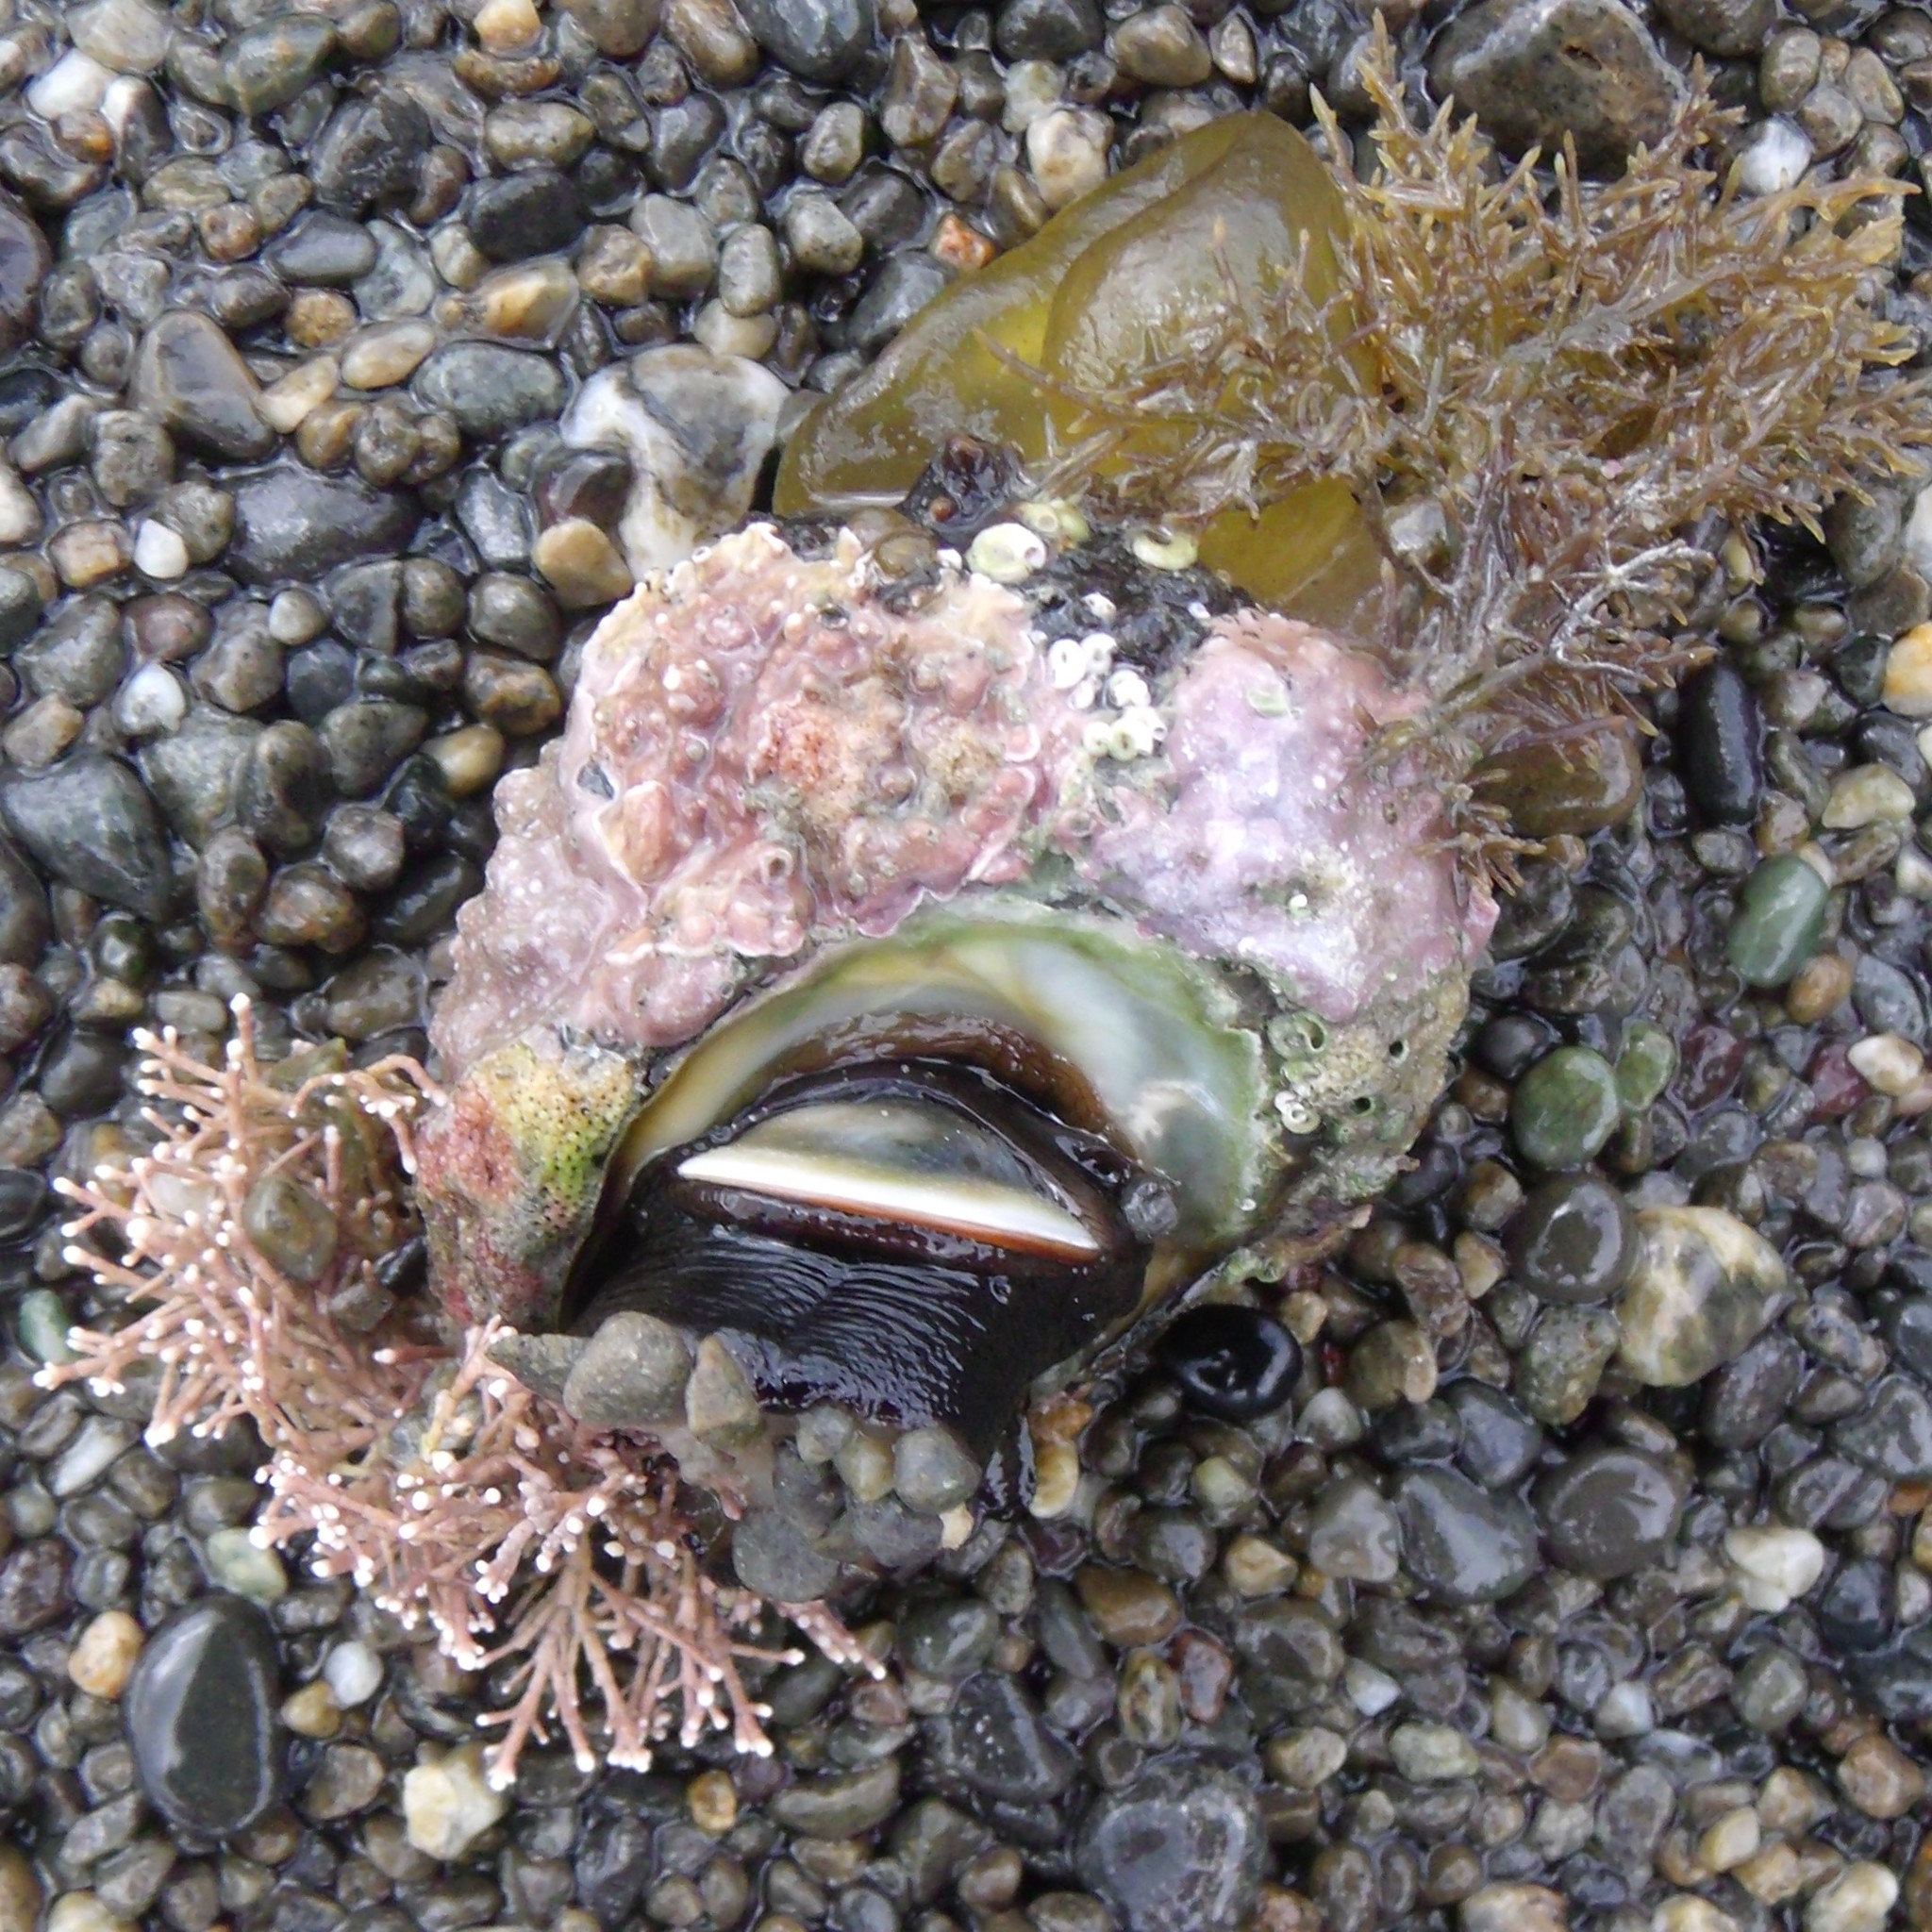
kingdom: Animalia
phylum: Mollusca
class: Gastropoda
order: Trochida
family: Turbinidae
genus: Lunella
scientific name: Lunella smaragda
